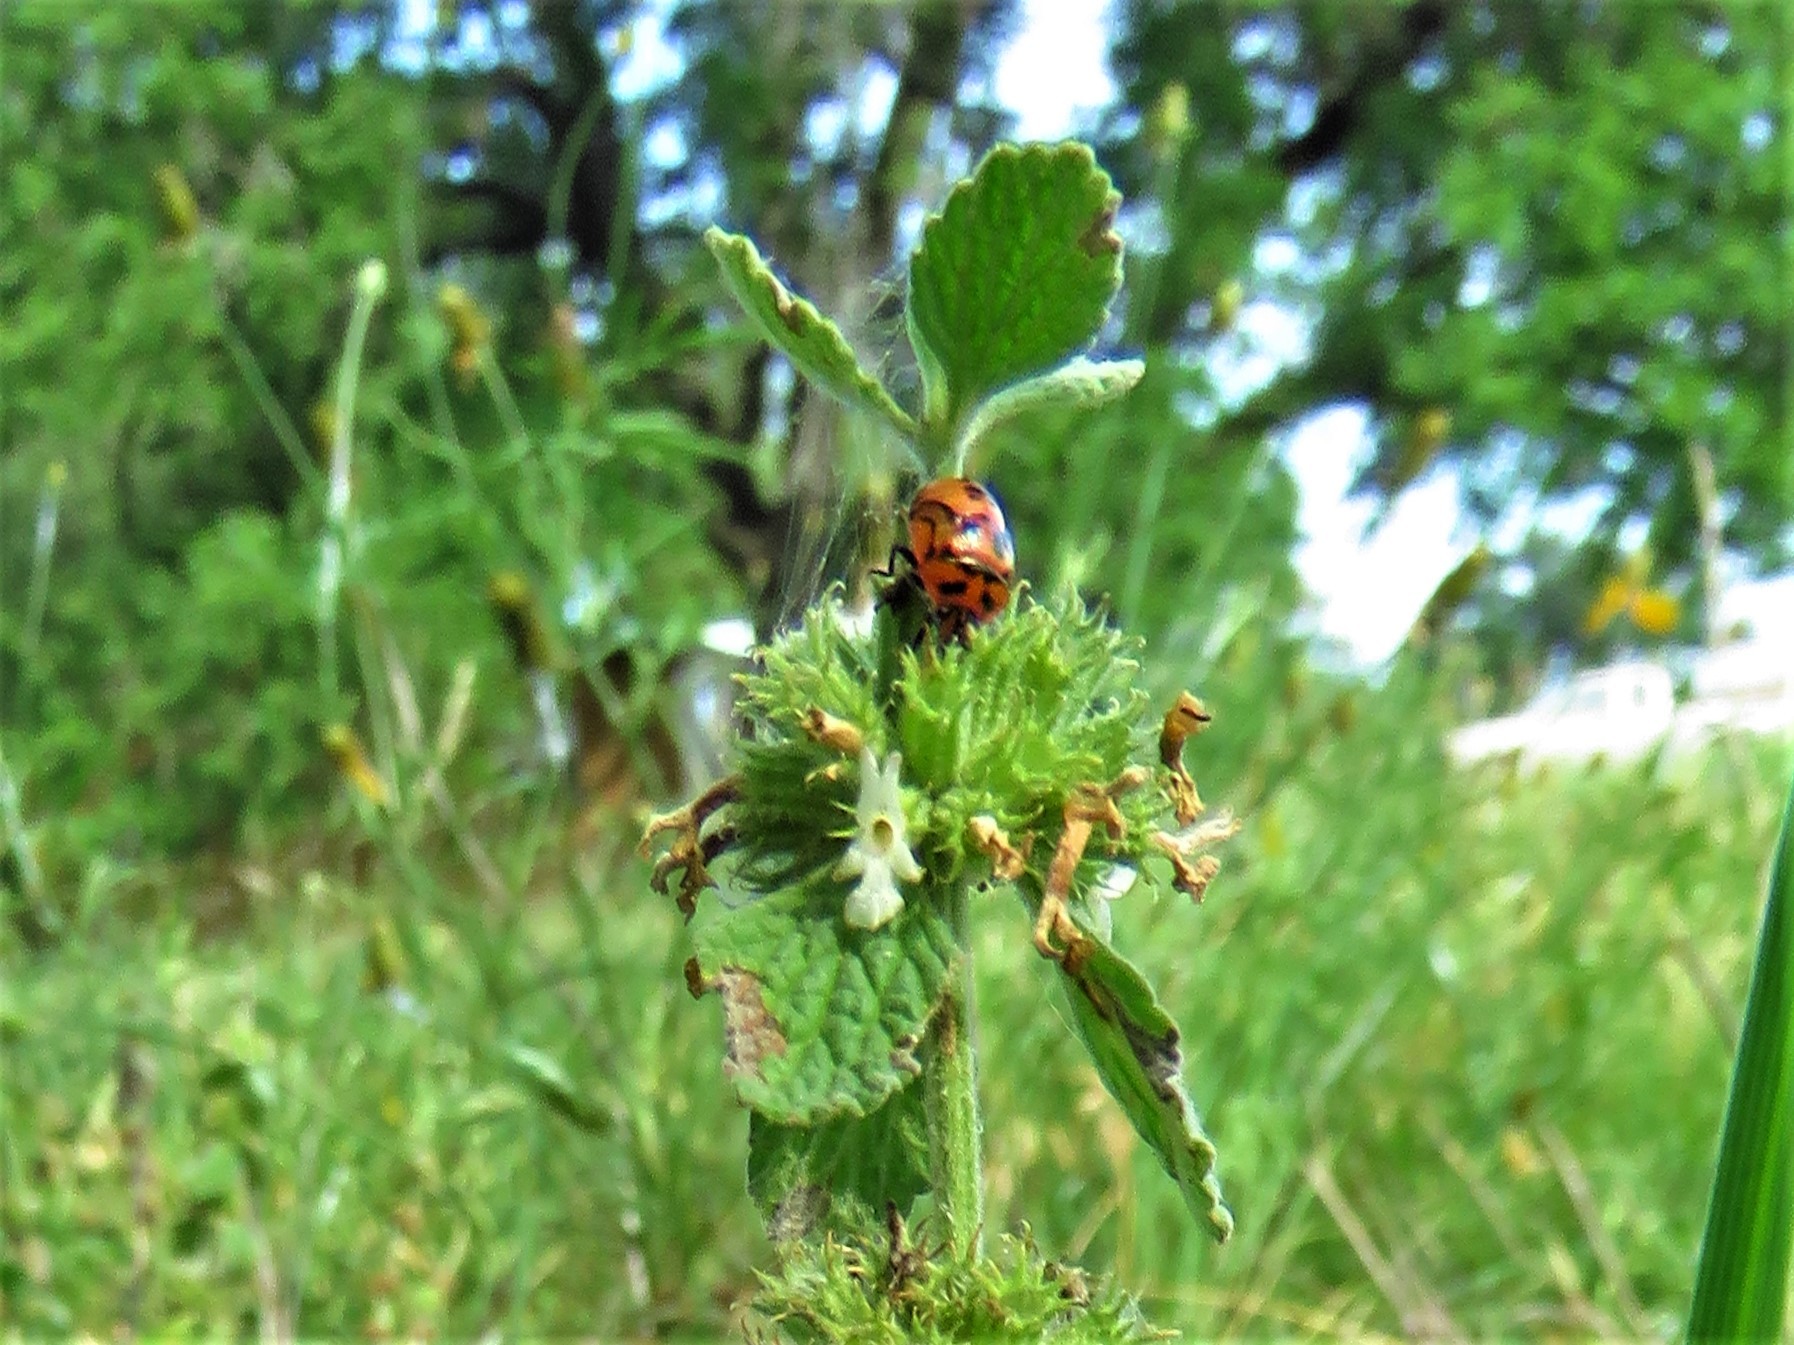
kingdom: Animalia
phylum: Arthropoda
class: Insecta
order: Hemiptera
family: Pentatomidae
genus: Cosmopepla
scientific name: Cosmopepla lintneriana
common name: Twice-stabbed stink bug
